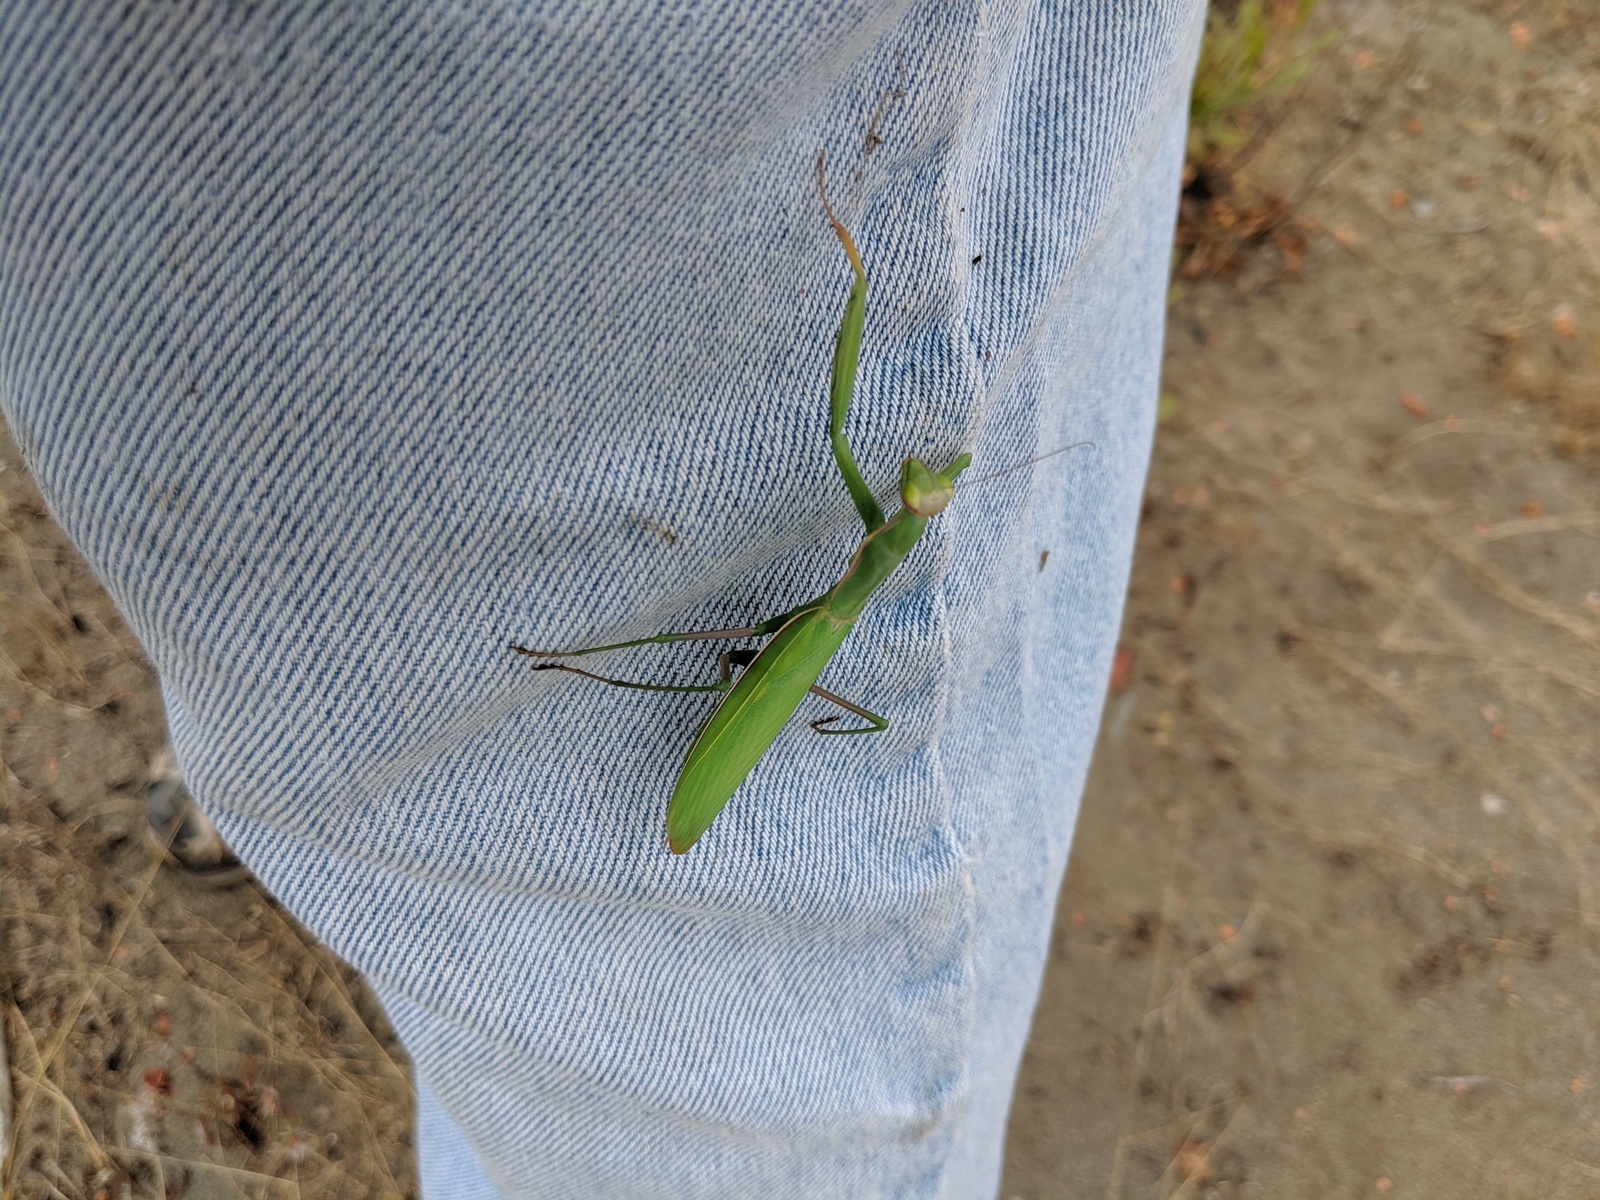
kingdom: Animalia
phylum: Arthropoda
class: Insecta
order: Mantodea
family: Mantidae
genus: Mantis
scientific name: Mantis religiosa
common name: Praying mantis
